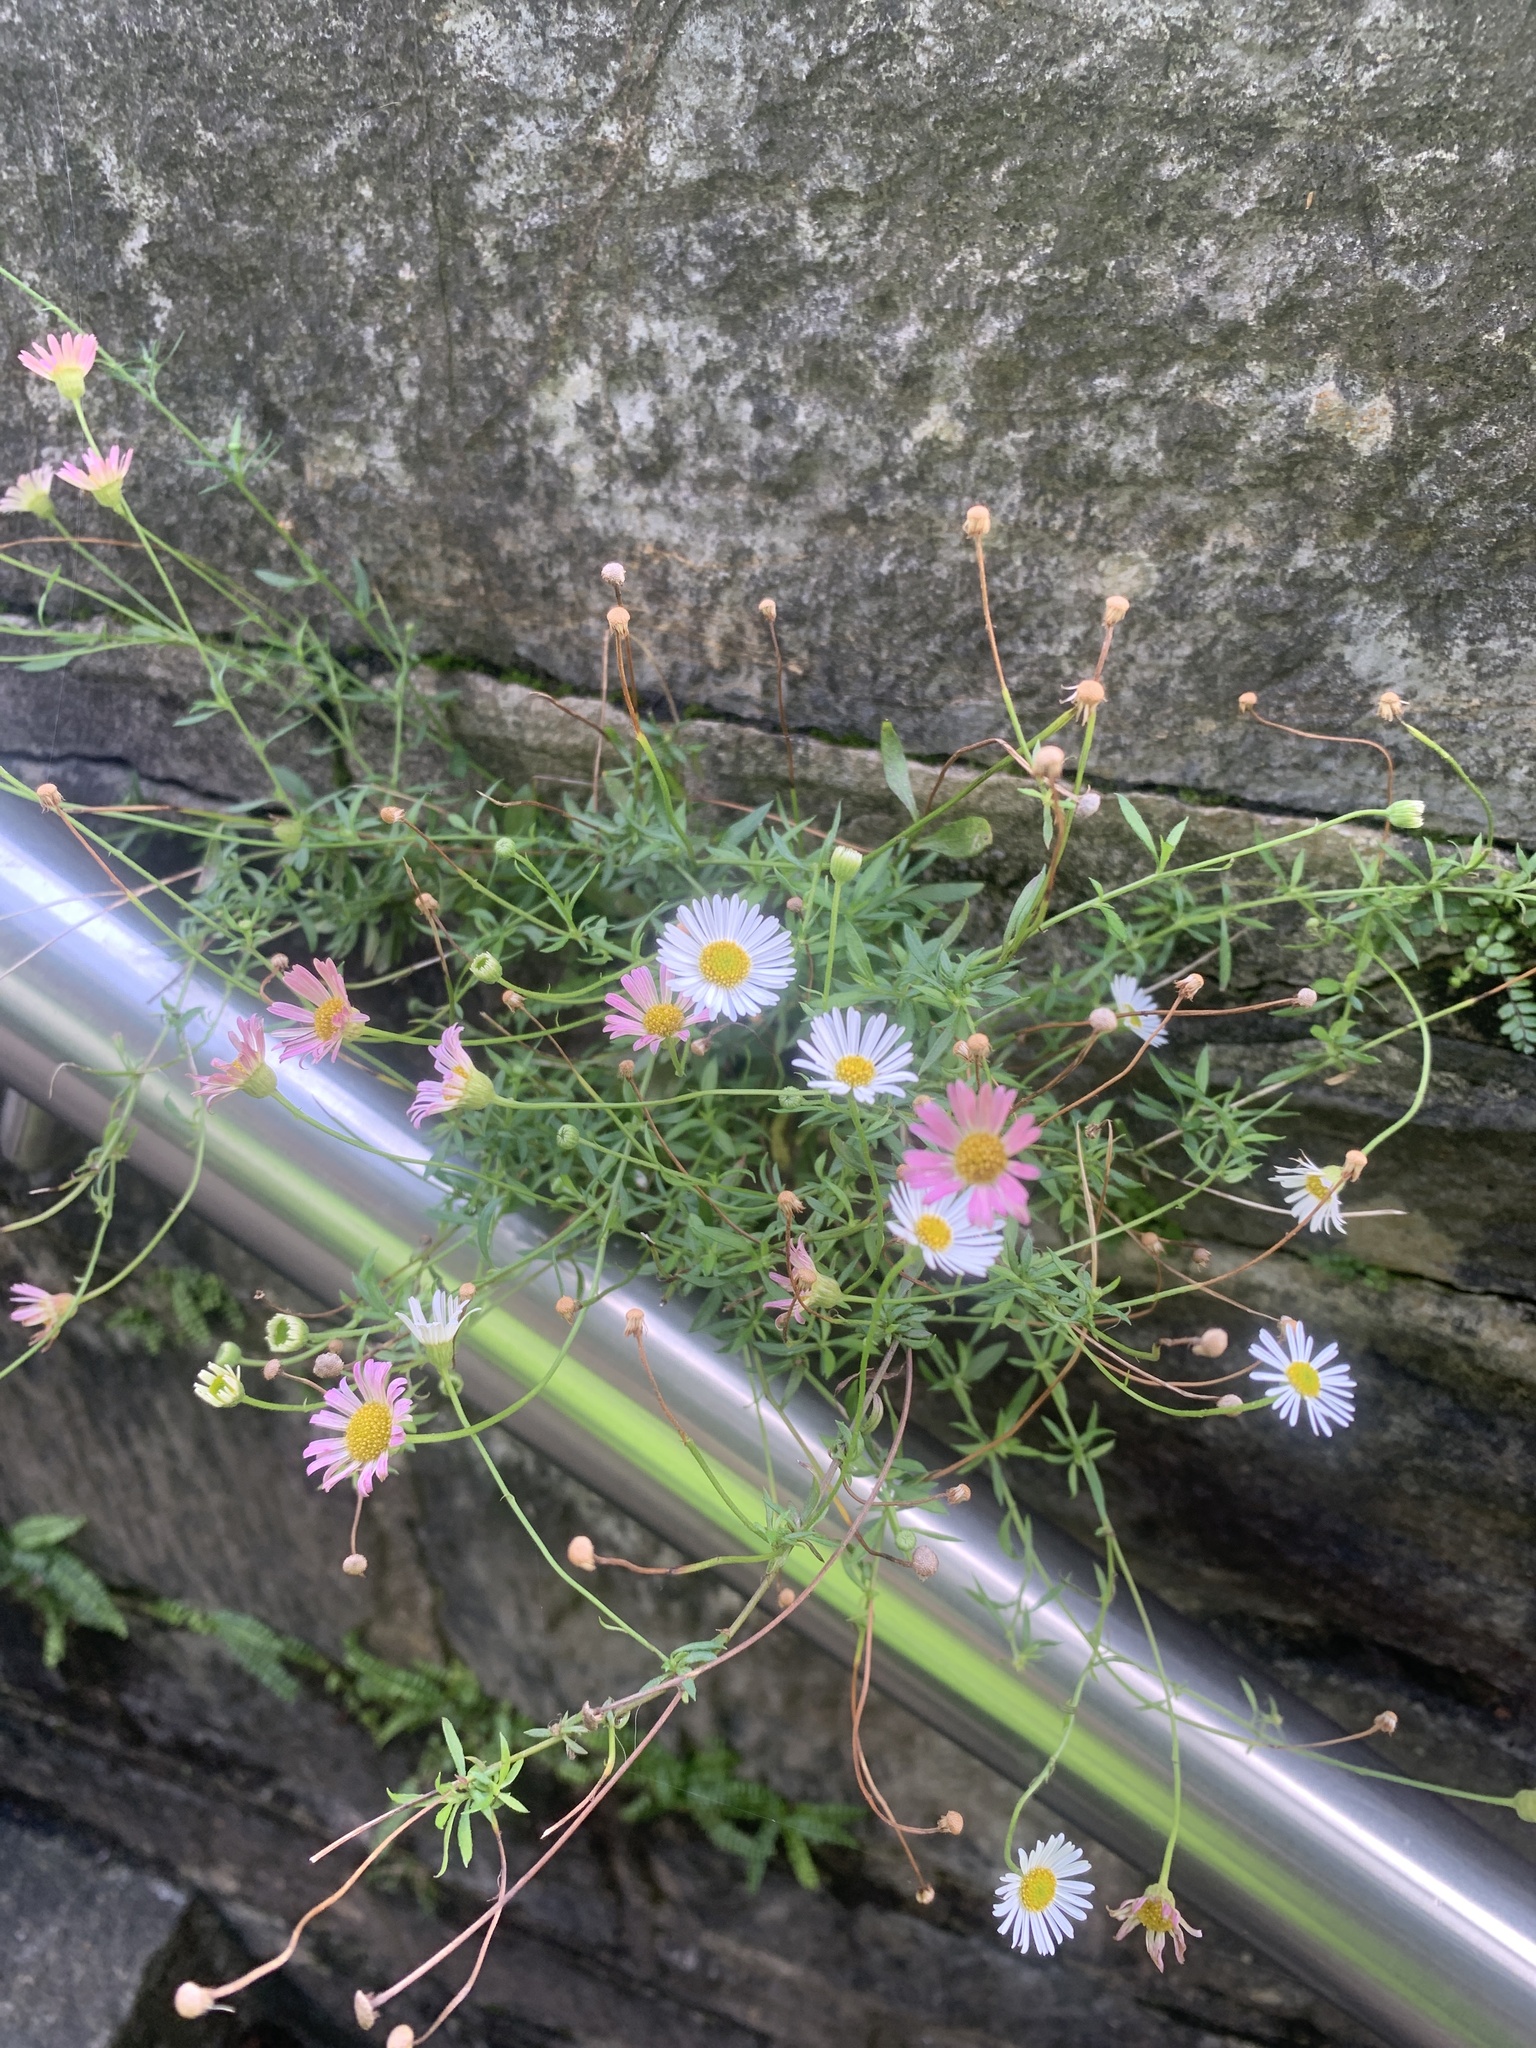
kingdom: Plantae
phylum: Tracheophyta
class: Magnoliopsida
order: Asterales
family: Asteraceae
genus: Erigeron
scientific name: Erigeron karvinskianus
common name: Mexican fleabane
